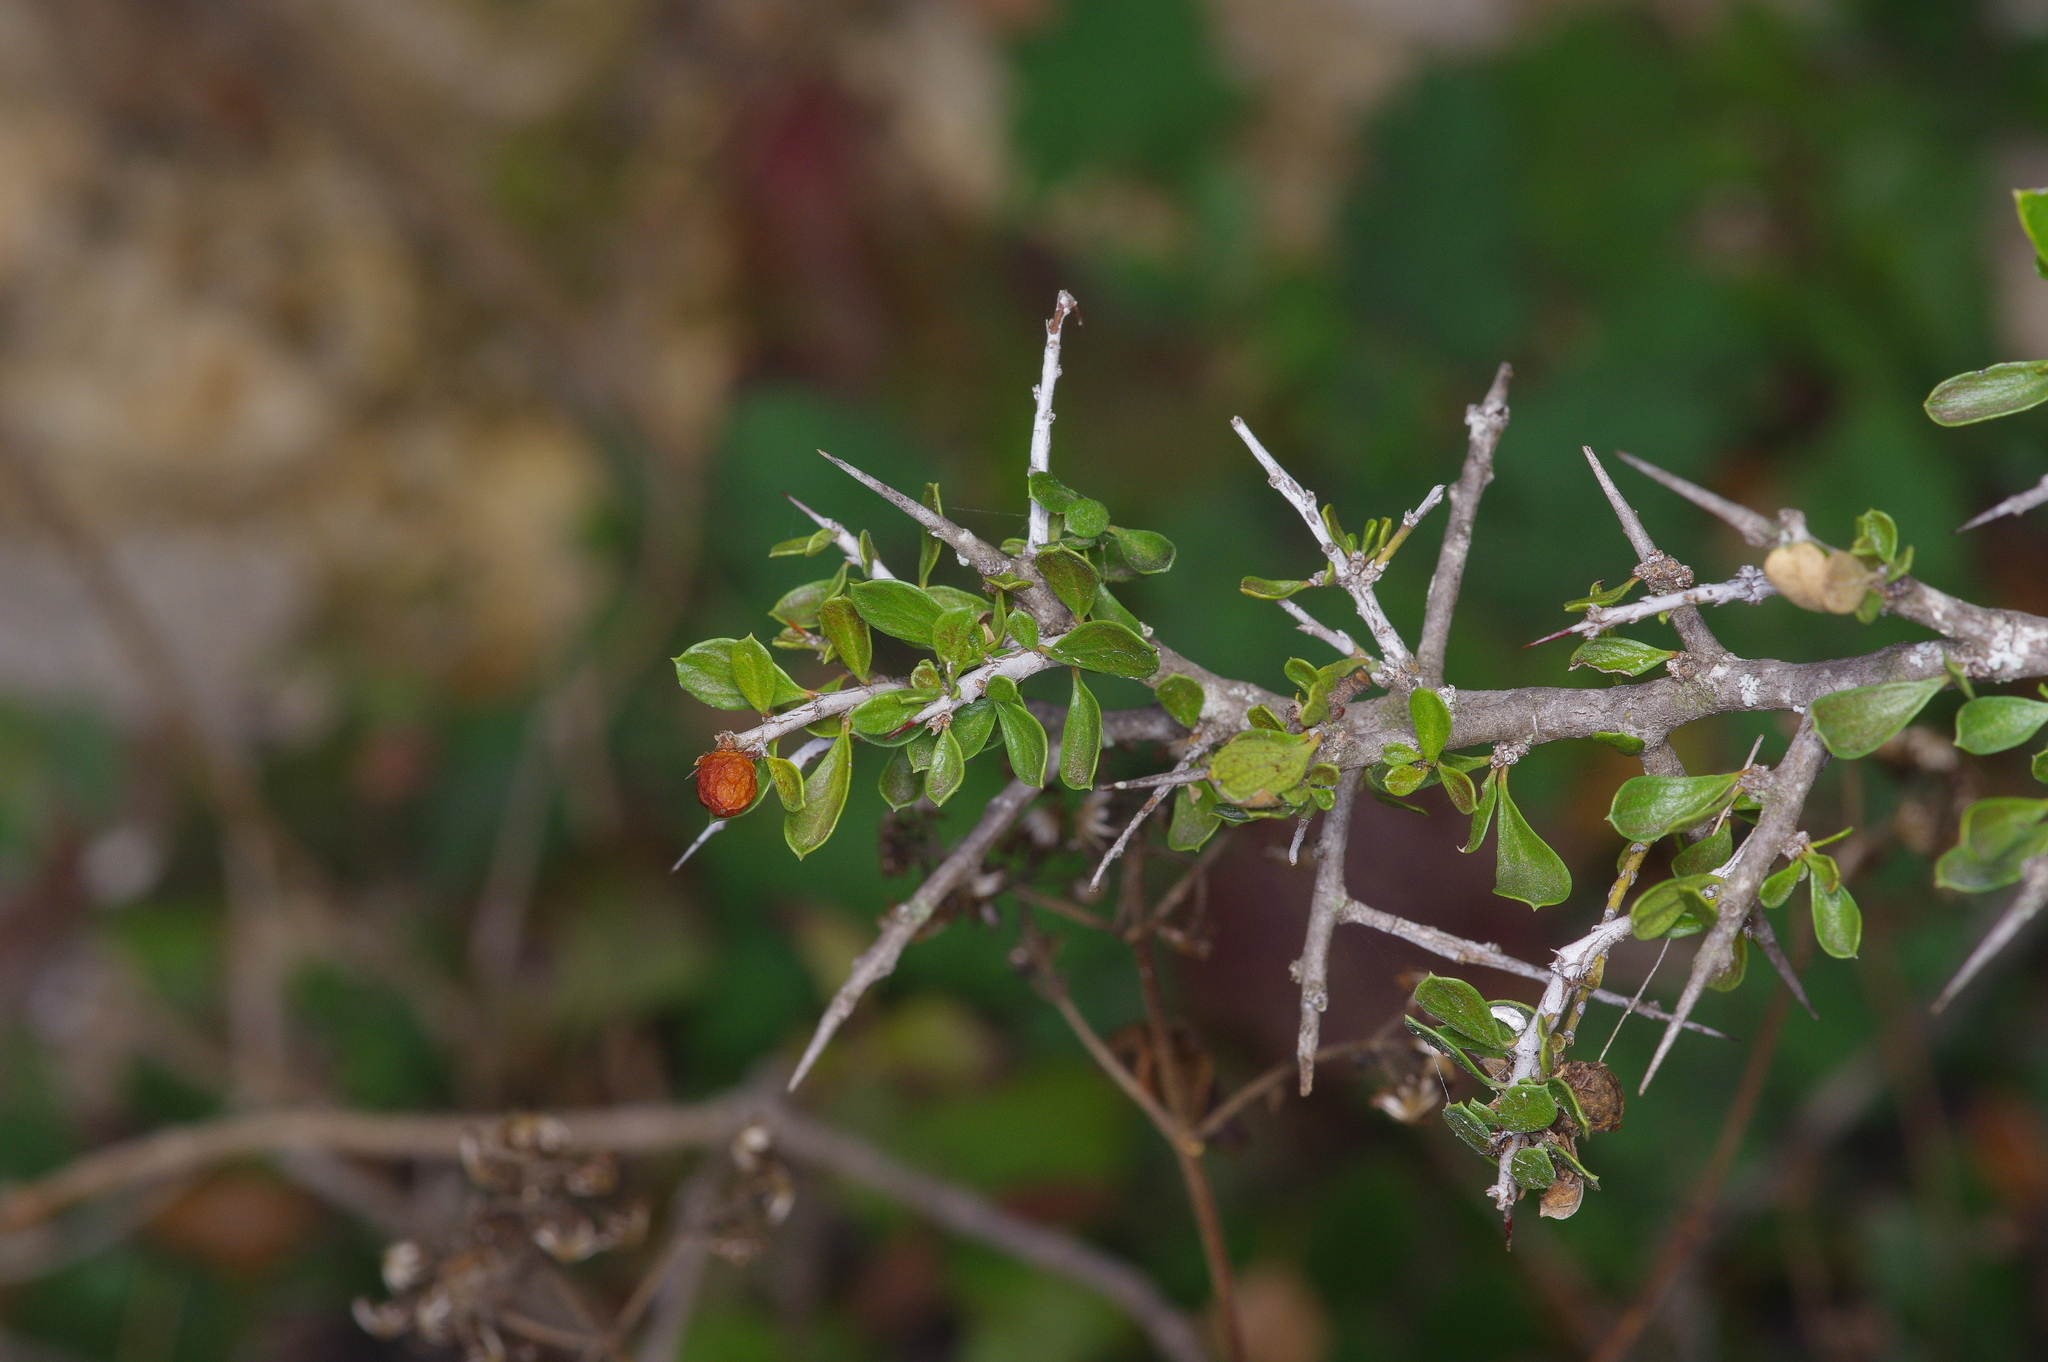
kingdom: Plantae
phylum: Tracheophyta
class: Magnoliopsida
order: Rosales
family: Rhamnaceae
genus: Condalia
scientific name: Condalia viridis
